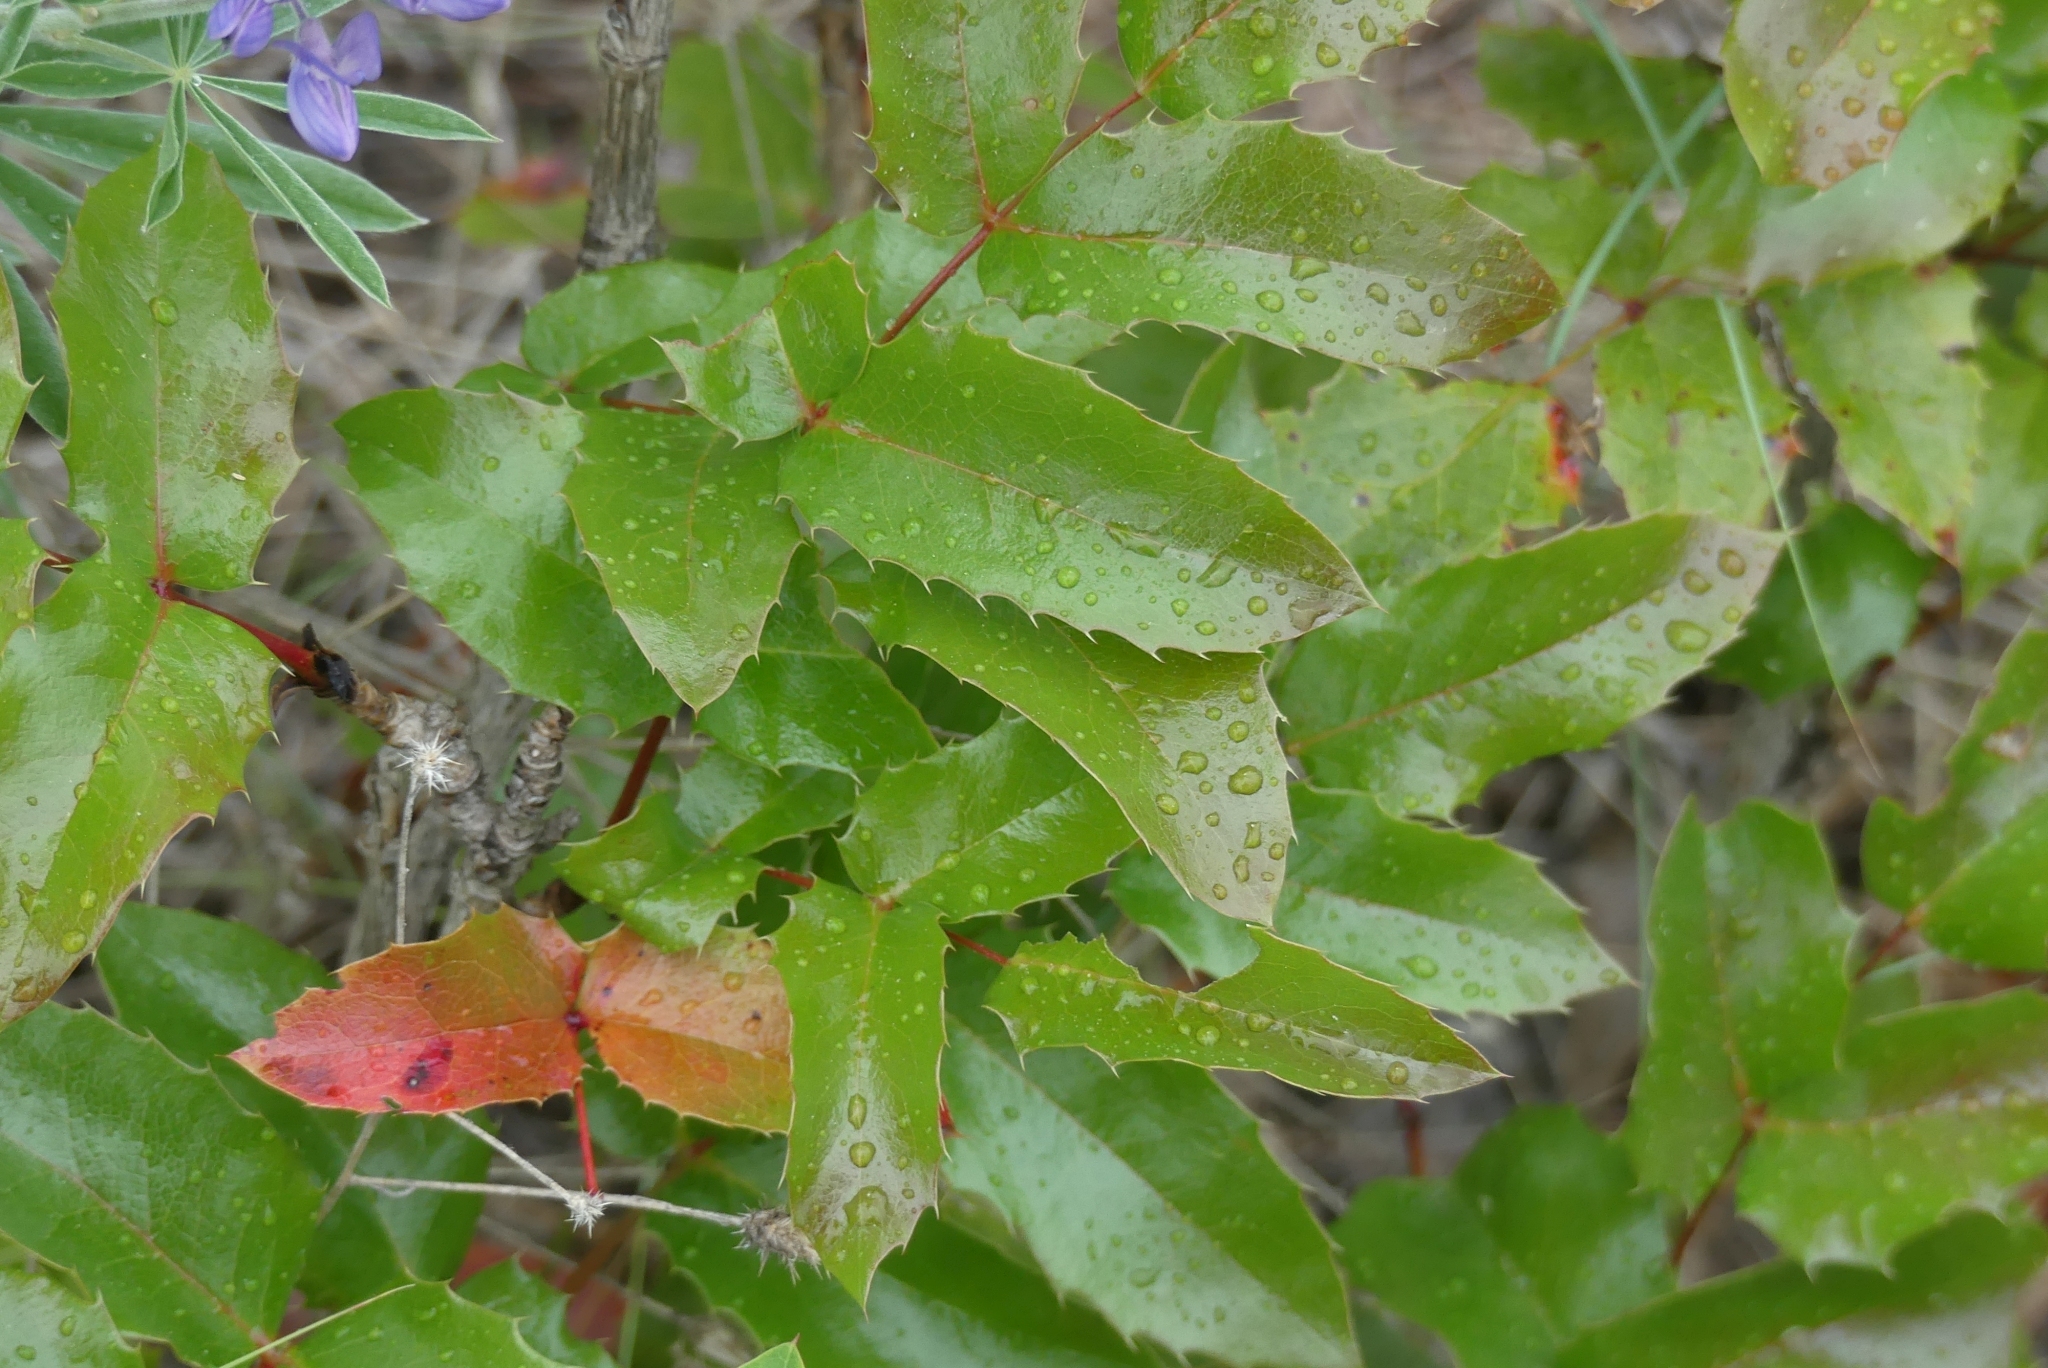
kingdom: Plantae
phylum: Tracheophyta
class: Magnoliopsida
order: Ranunculales
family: Berberidaceae
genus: Mahonia
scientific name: Mahonia aquifolium
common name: Oregon-grape
